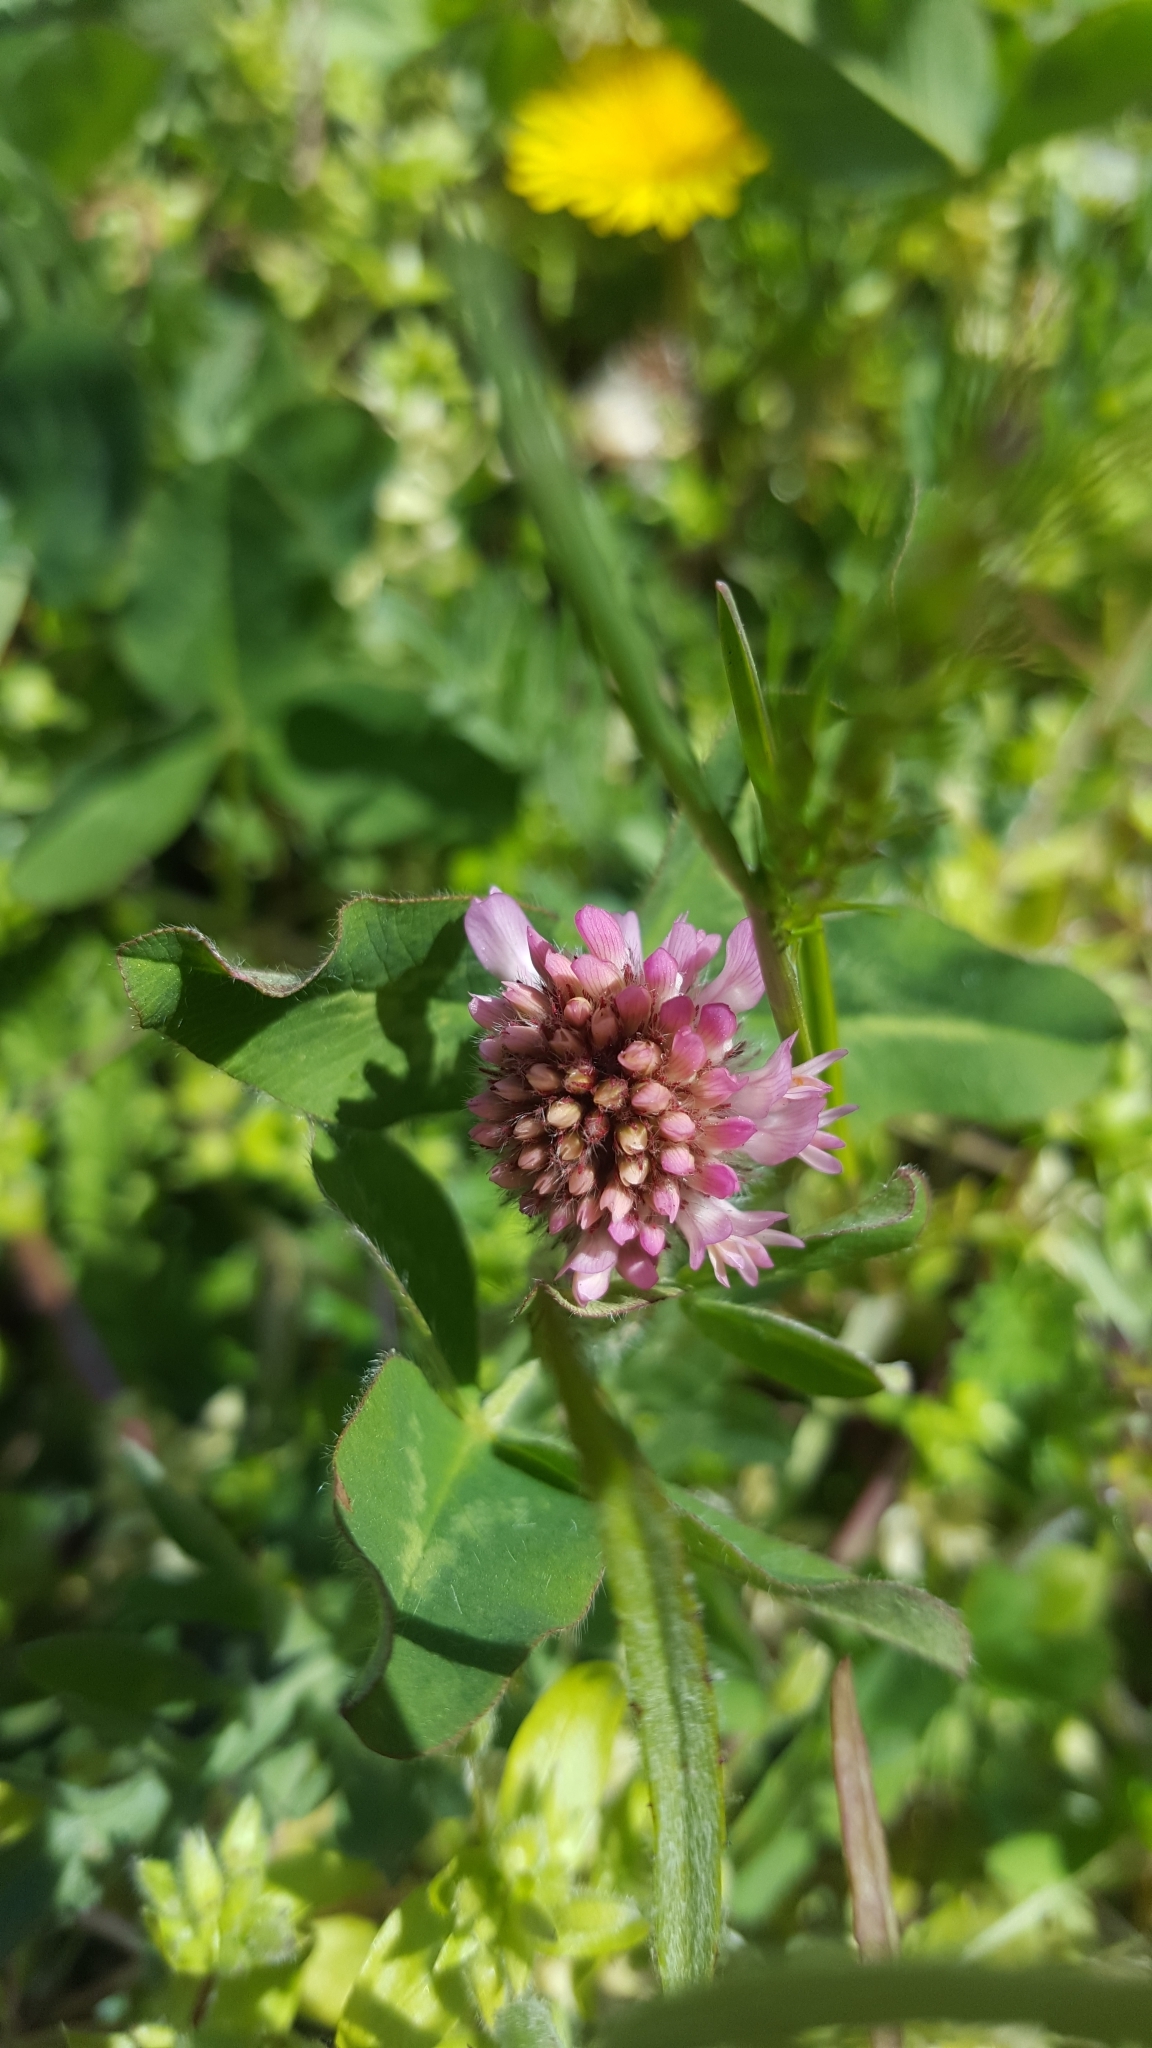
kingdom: Plantae
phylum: Tracheophyta
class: Magnoliopsida
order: Fabales
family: Fabaceae
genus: Trifolium
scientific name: Trifolium pratense
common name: Red clover
